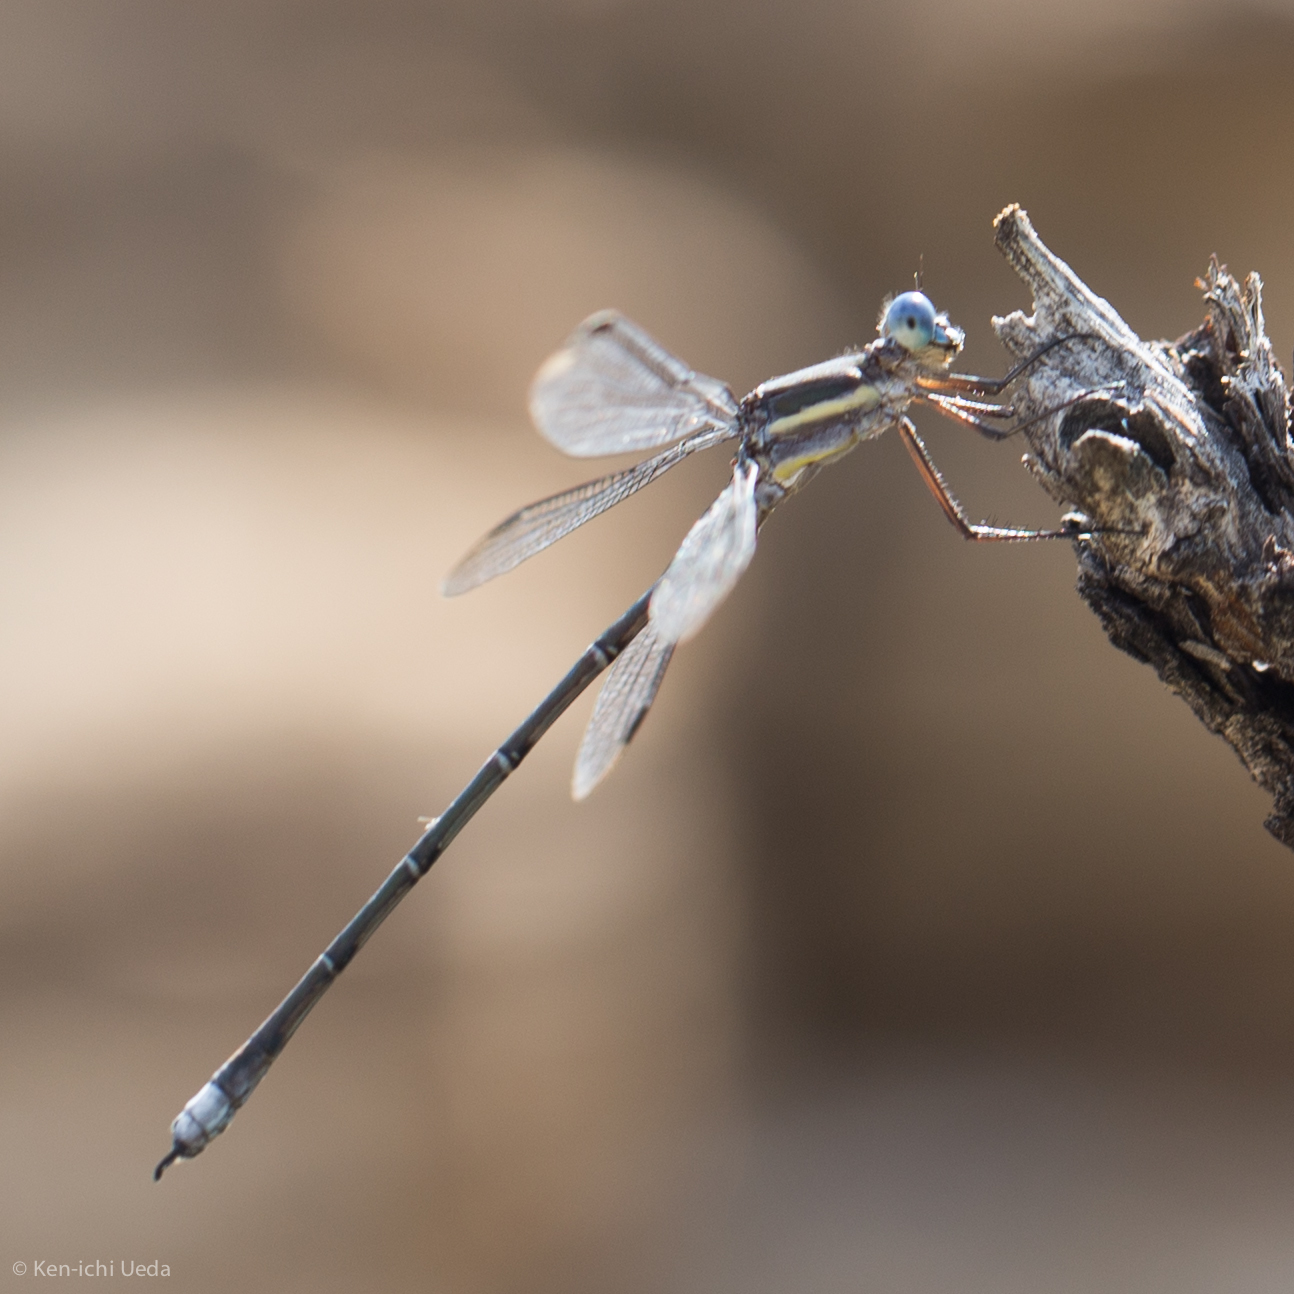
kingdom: Animalia
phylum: Arthropoda
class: Insecta
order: Odonata
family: Lestidae
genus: Archilestes
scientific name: Archilestes grandis
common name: Great spreadwing
